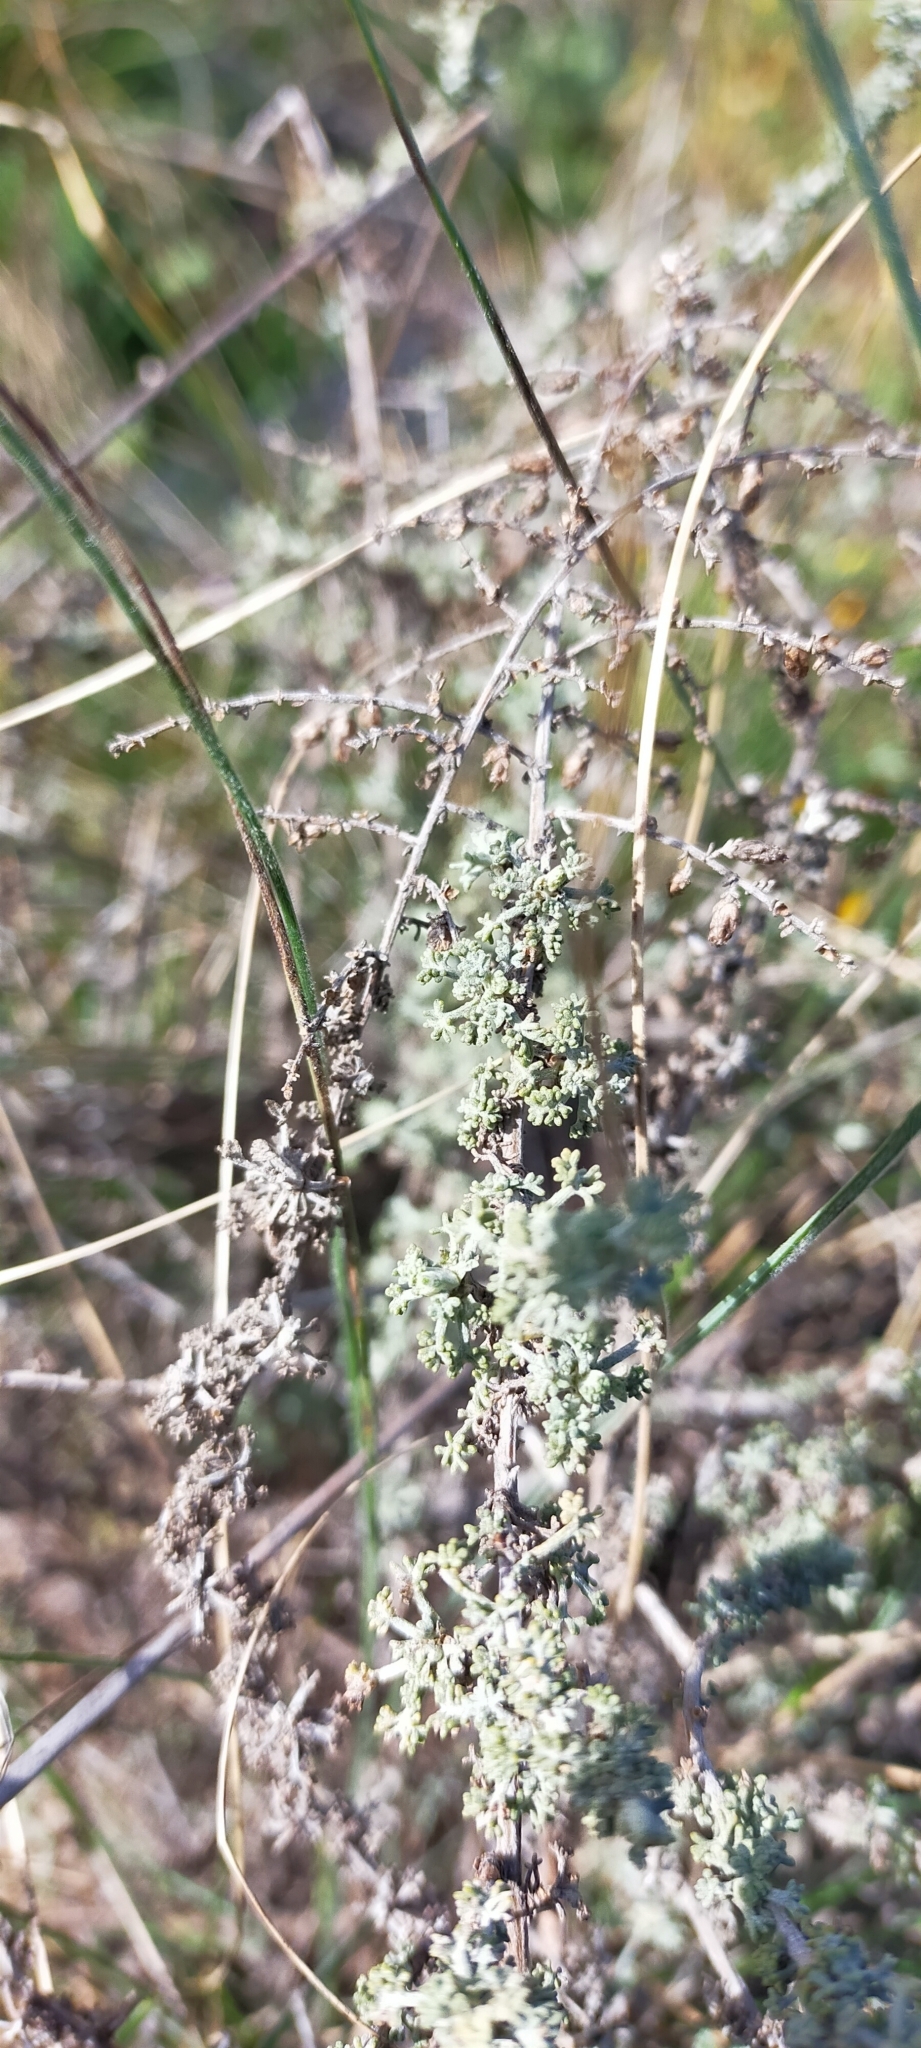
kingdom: Plantae
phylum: Tracheophyta
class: Magnoliopsida
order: Asterales
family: Asteraceae
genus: Artemisia
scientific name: Artemisia herba-alba
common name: White wormwood
